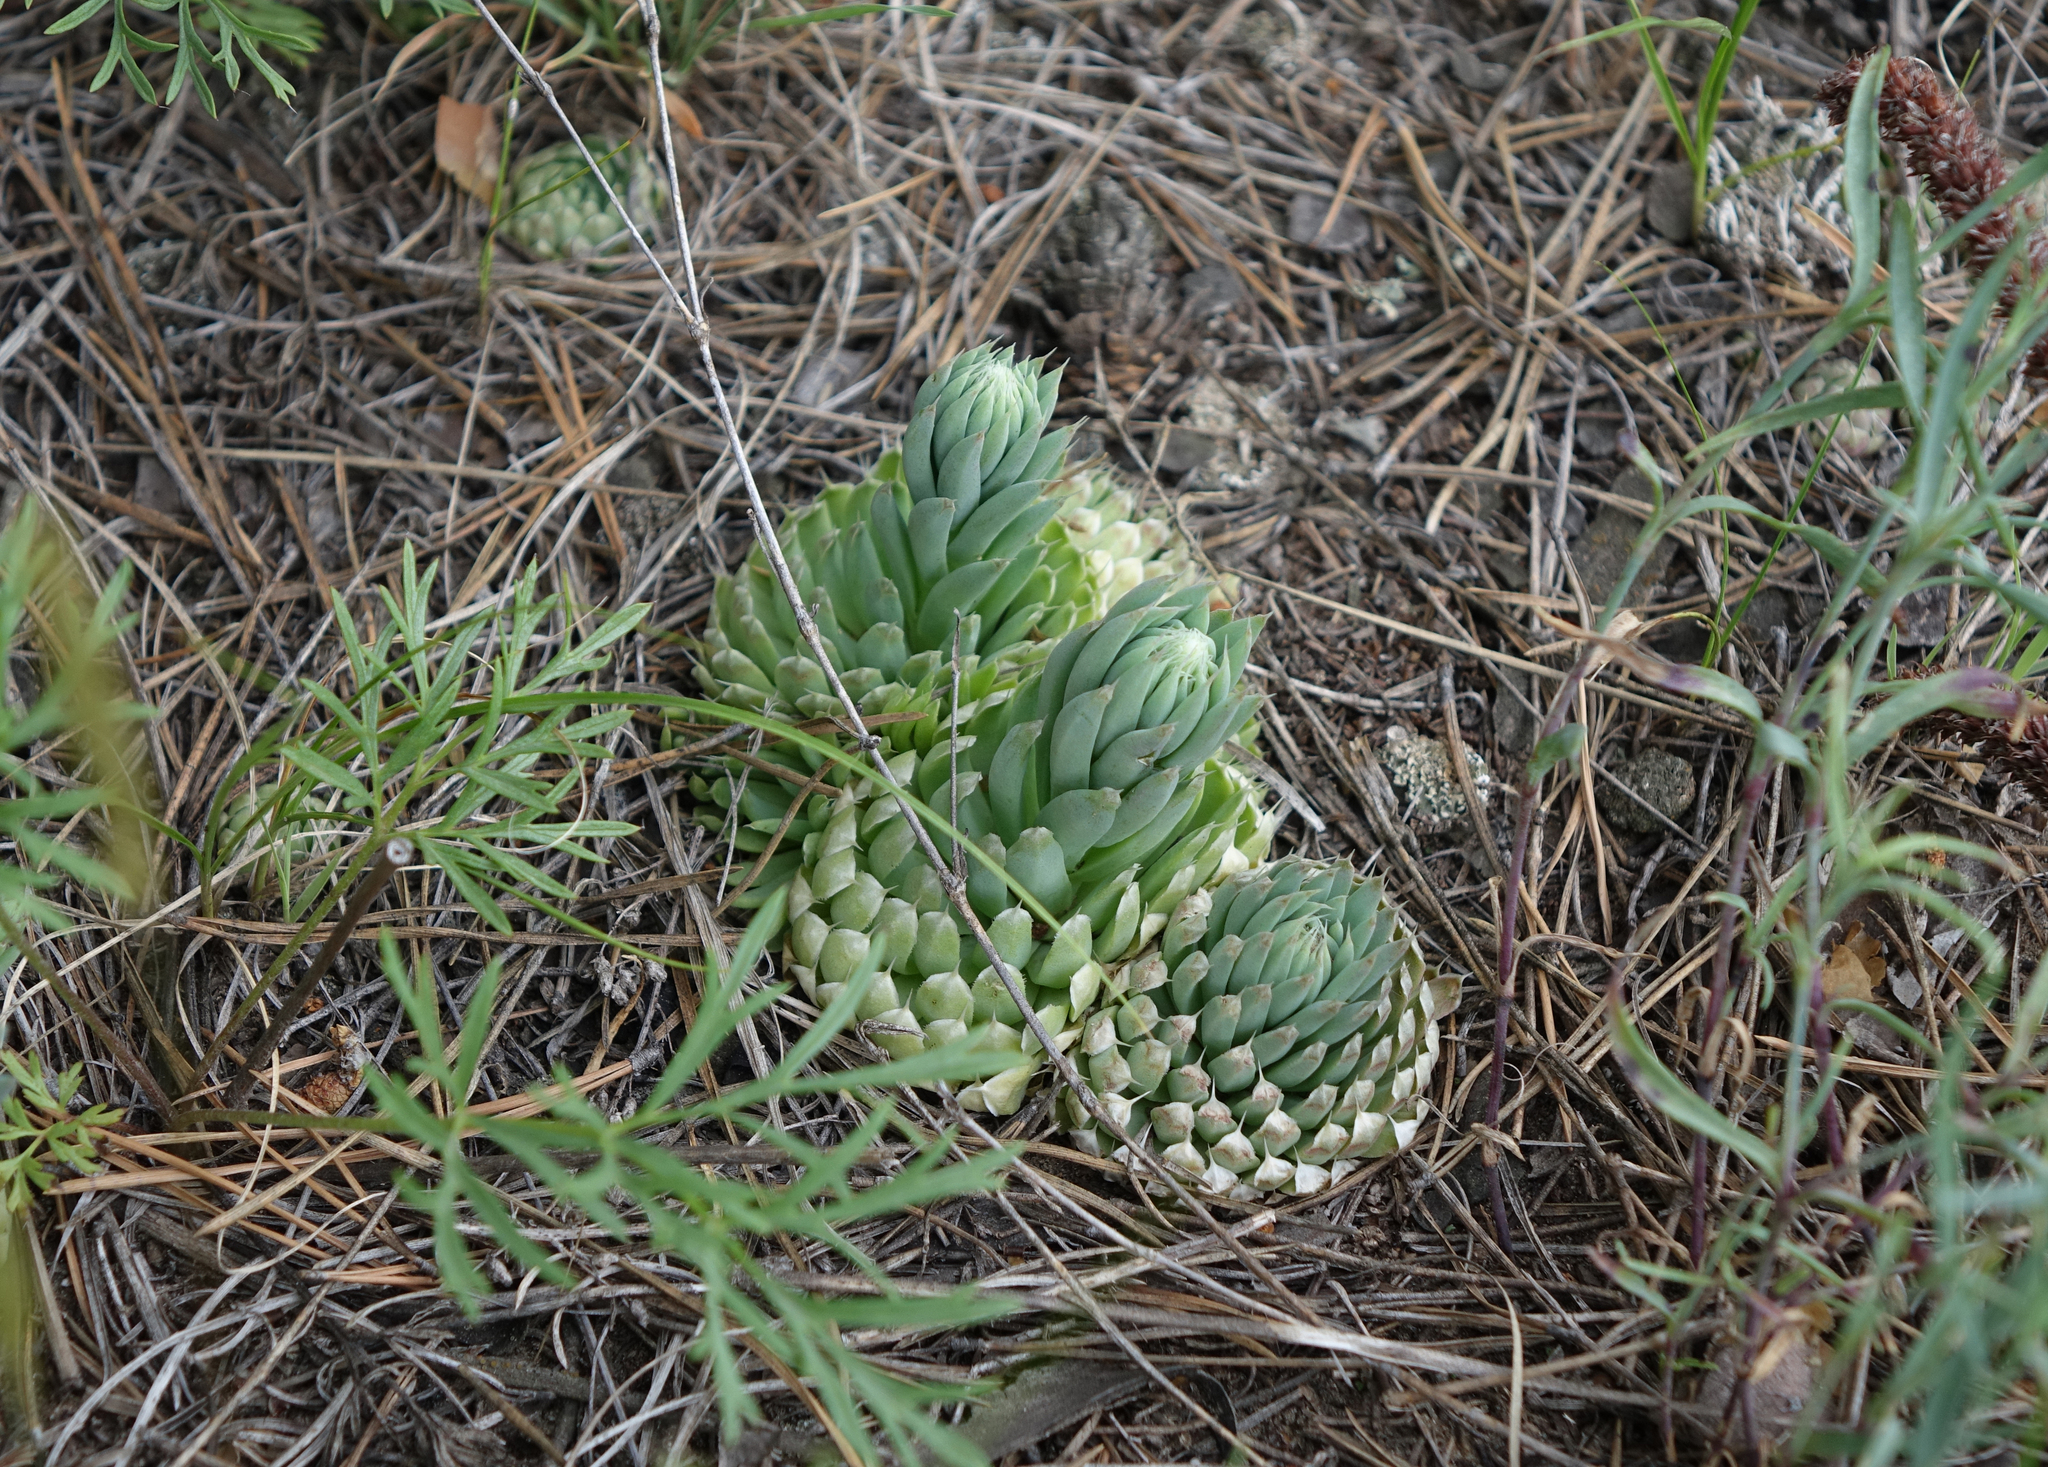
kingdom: Plantae
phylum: Tracheophyta
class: Magnoliopsida
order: Saxifragales
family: Crassulaceae
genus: Orostachys
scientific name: Orostachys spinosa
